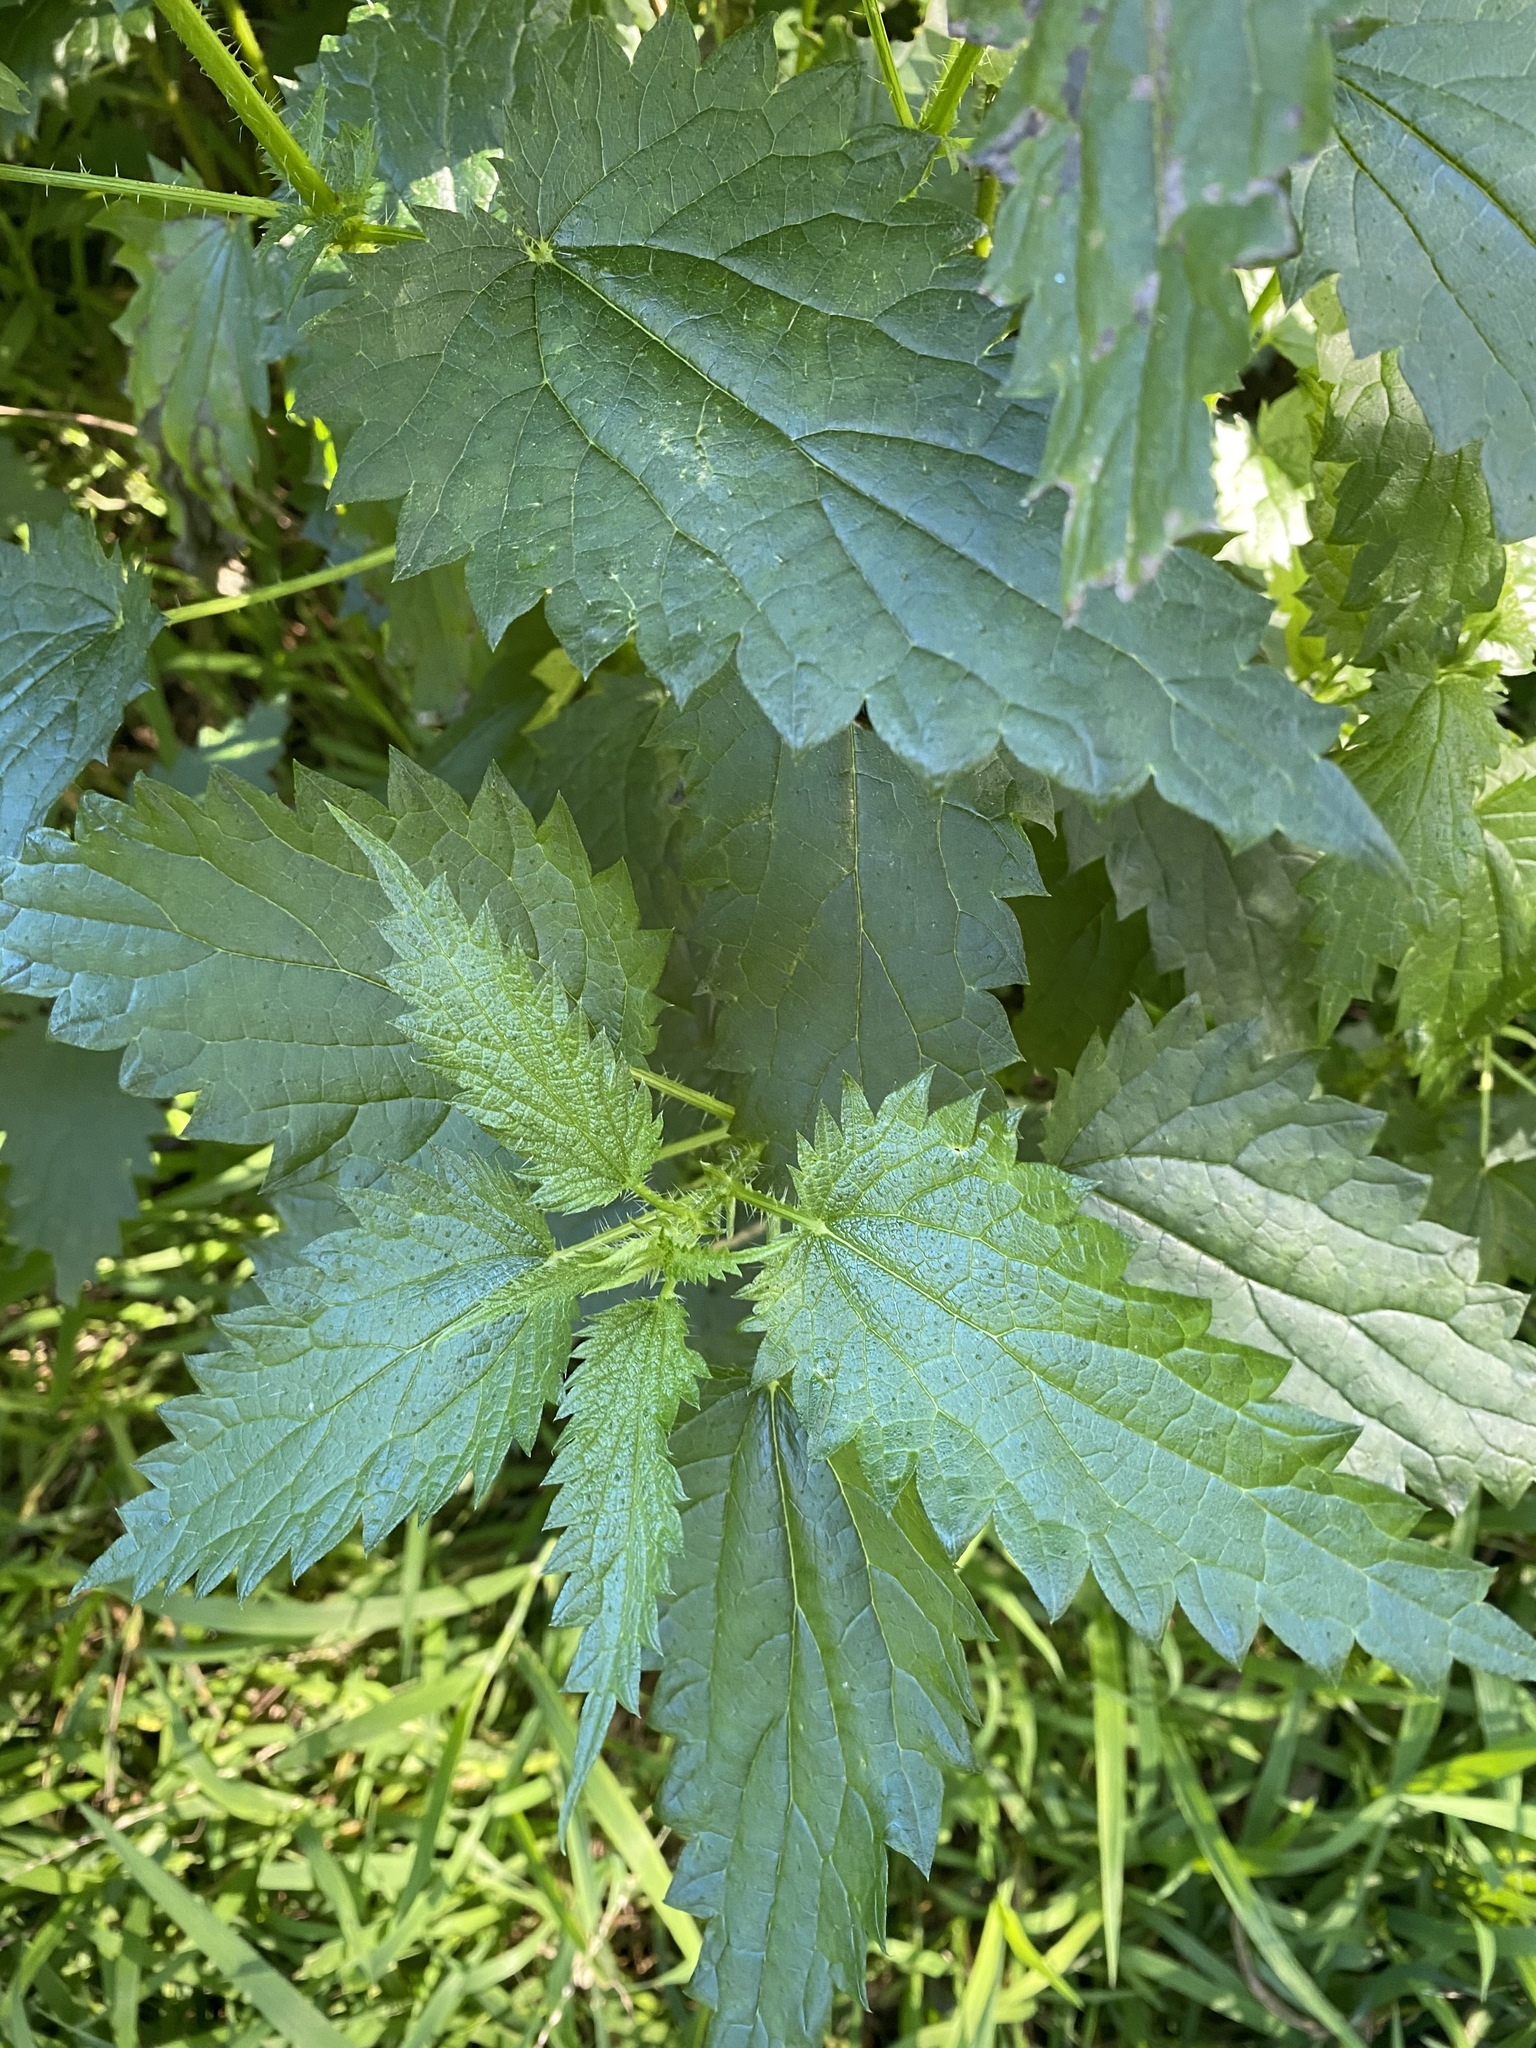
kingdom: Plantae
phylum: Tracheophyta
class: Magnoliopsida
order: Rosales
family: Urticaceae
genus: Urtica
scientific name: Urtica dioica
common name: Common nettle
